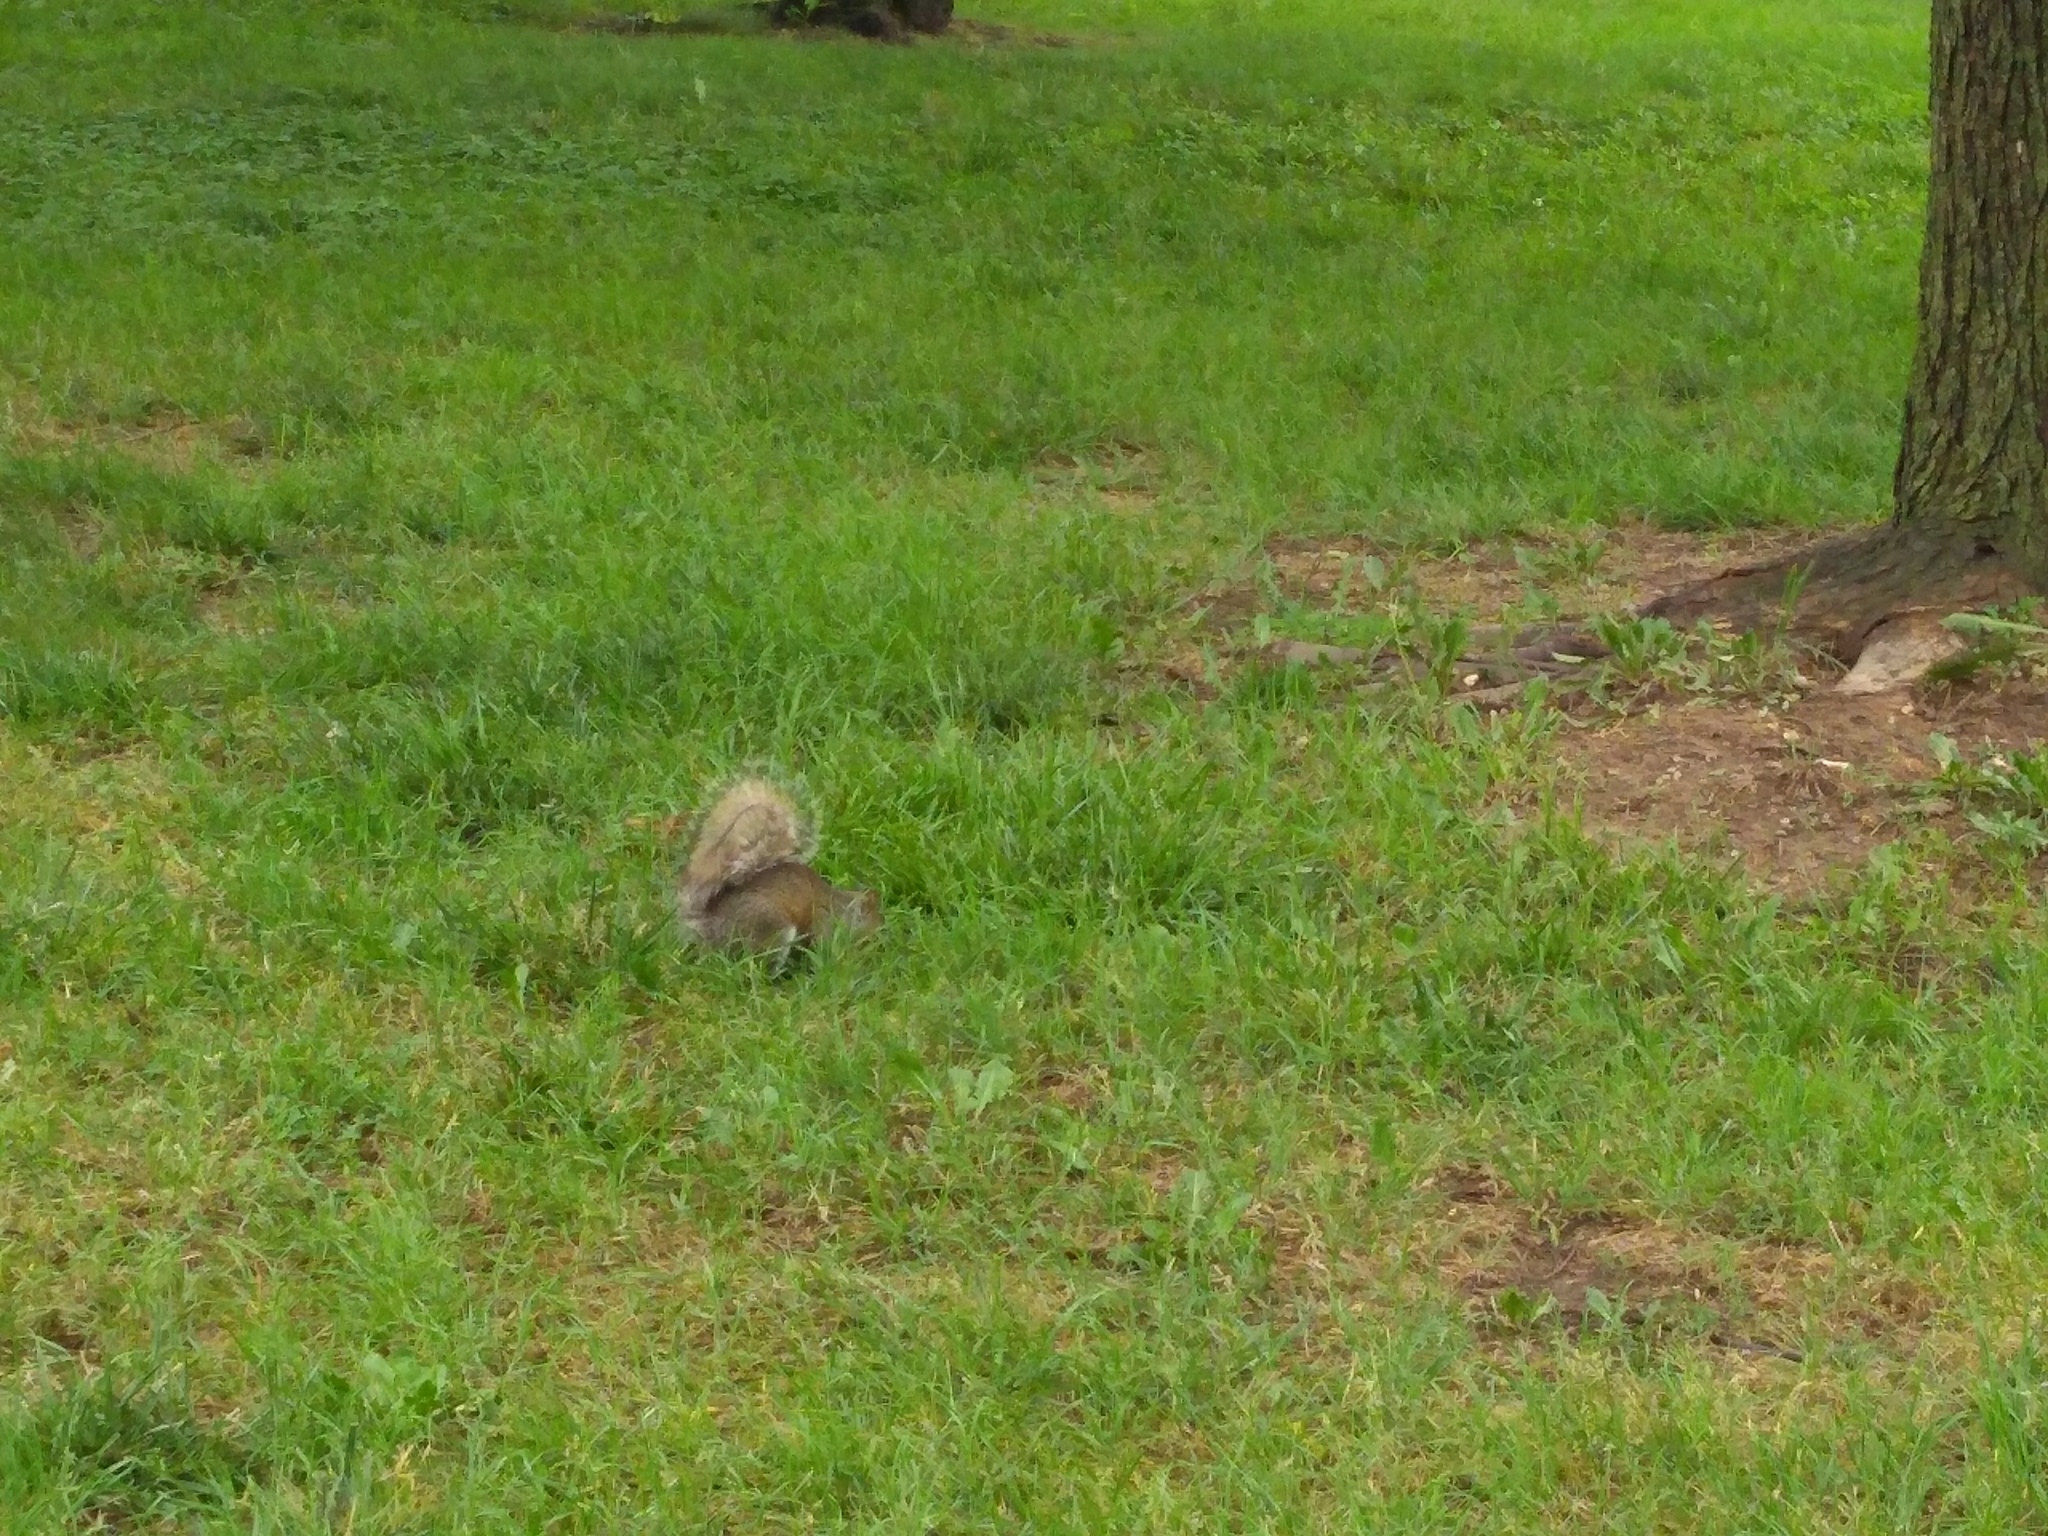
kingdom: Animalia
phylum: Chordata
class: Mammalia
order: Rodentia
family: Sciuridae
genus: Sciurus
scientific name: Sciurus carolinensis
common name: Eastern gray squirrel
